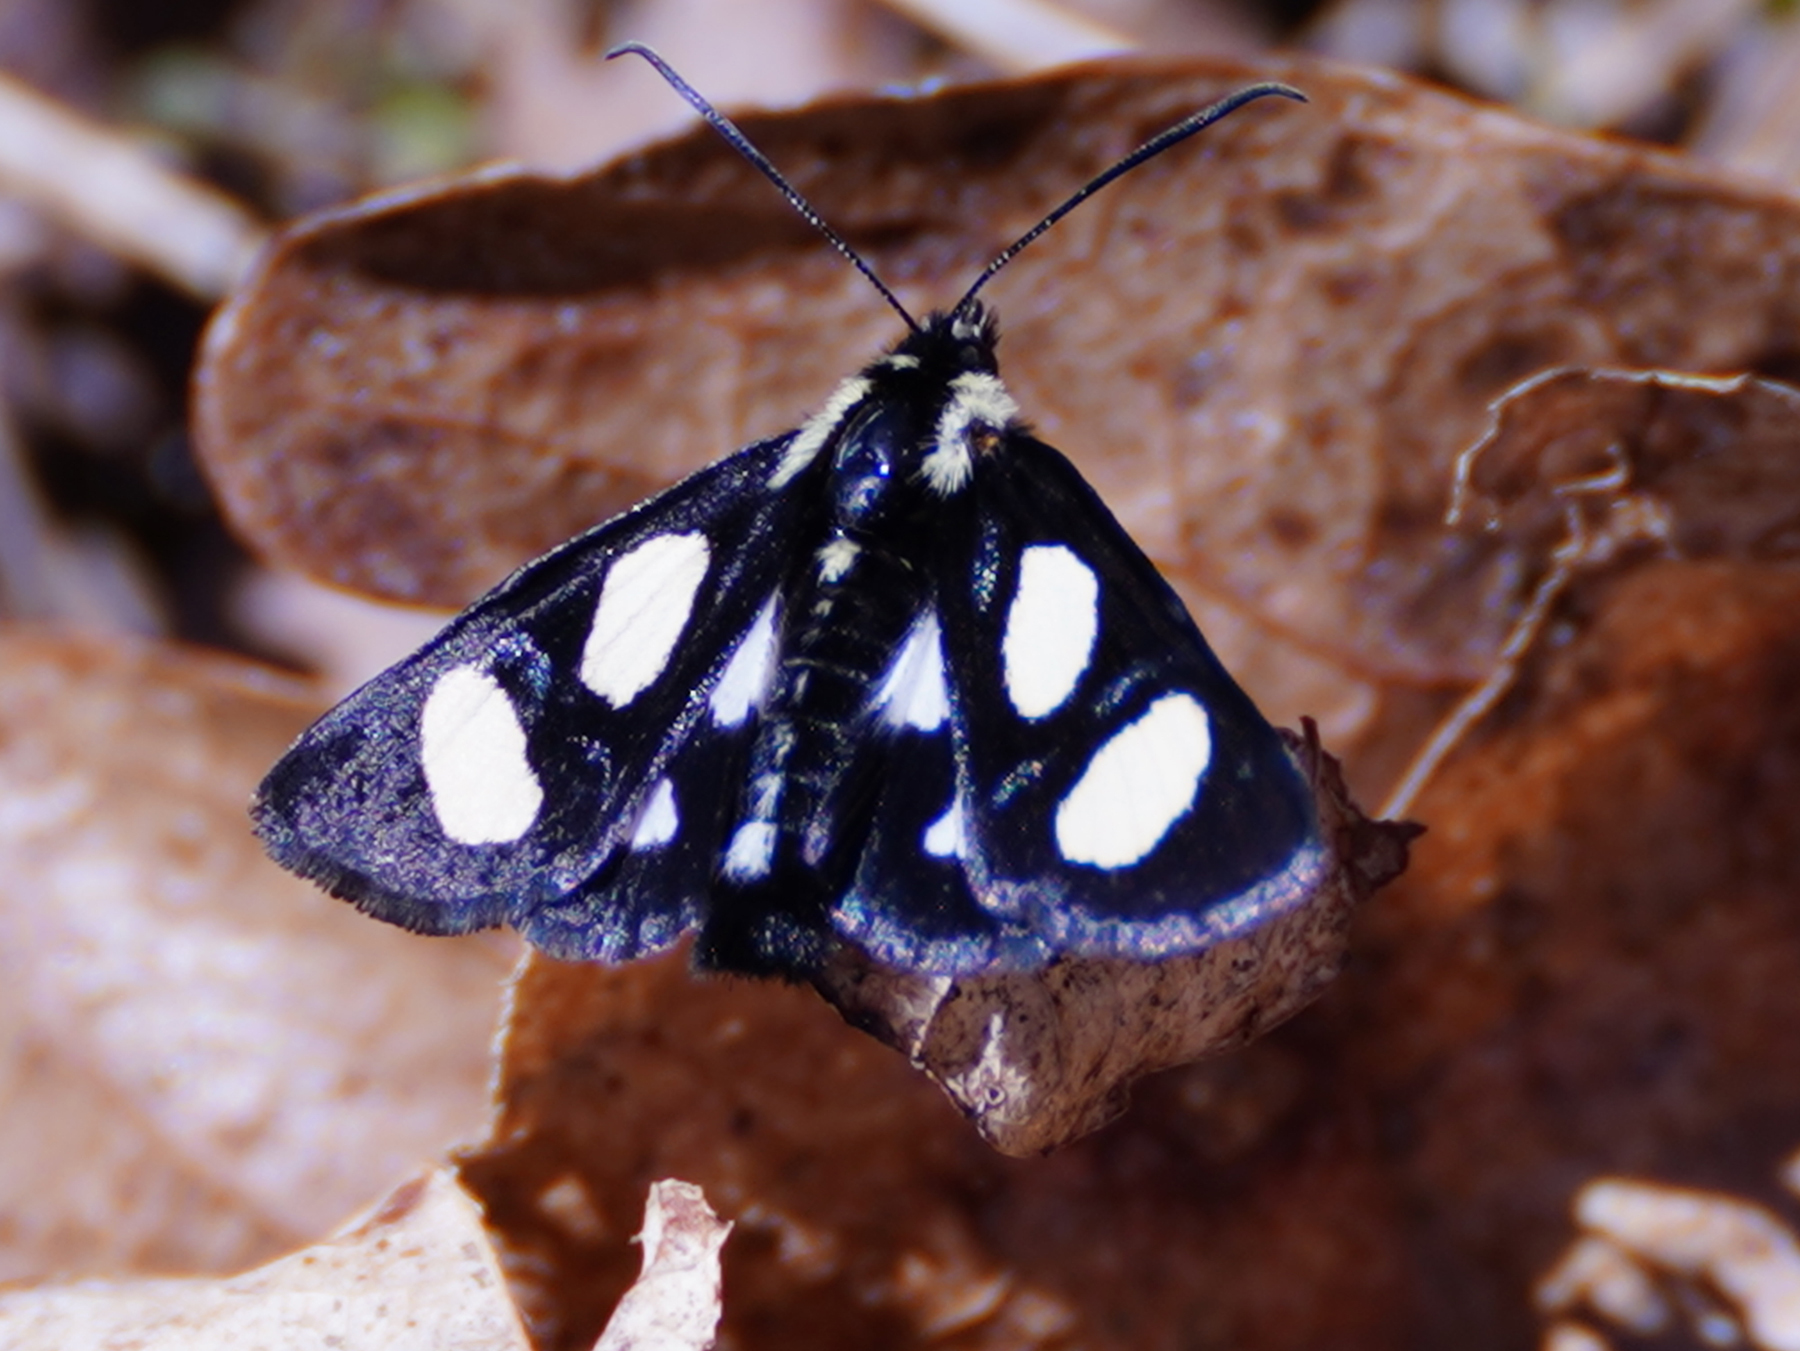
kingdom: Animalia
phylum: Arthropoda
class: Insecta
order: Lepidoptera
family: Noctuidae
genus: Alypia
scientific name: Alypia octomaculata
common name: Eight-spotted forester
